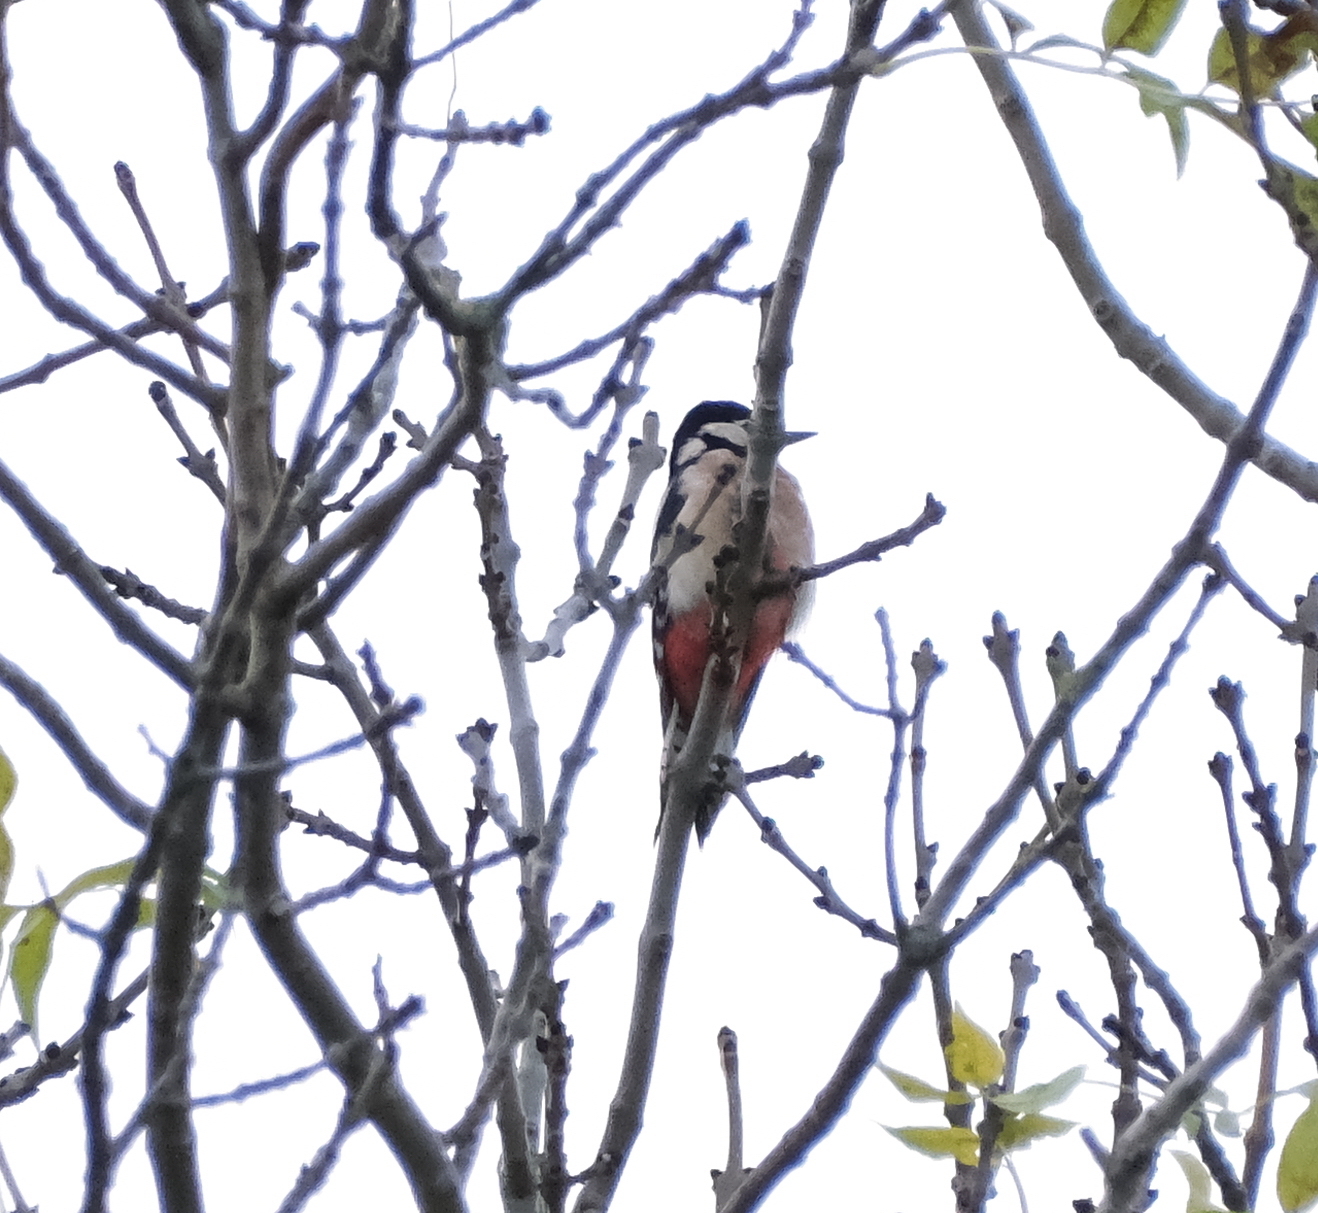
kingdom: Animalia
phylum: Chordata
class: Aves
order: Piciformes
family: Picidae
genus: Dendrocopos
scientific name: Dendrocopos major
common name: Great spotted woodpecker
